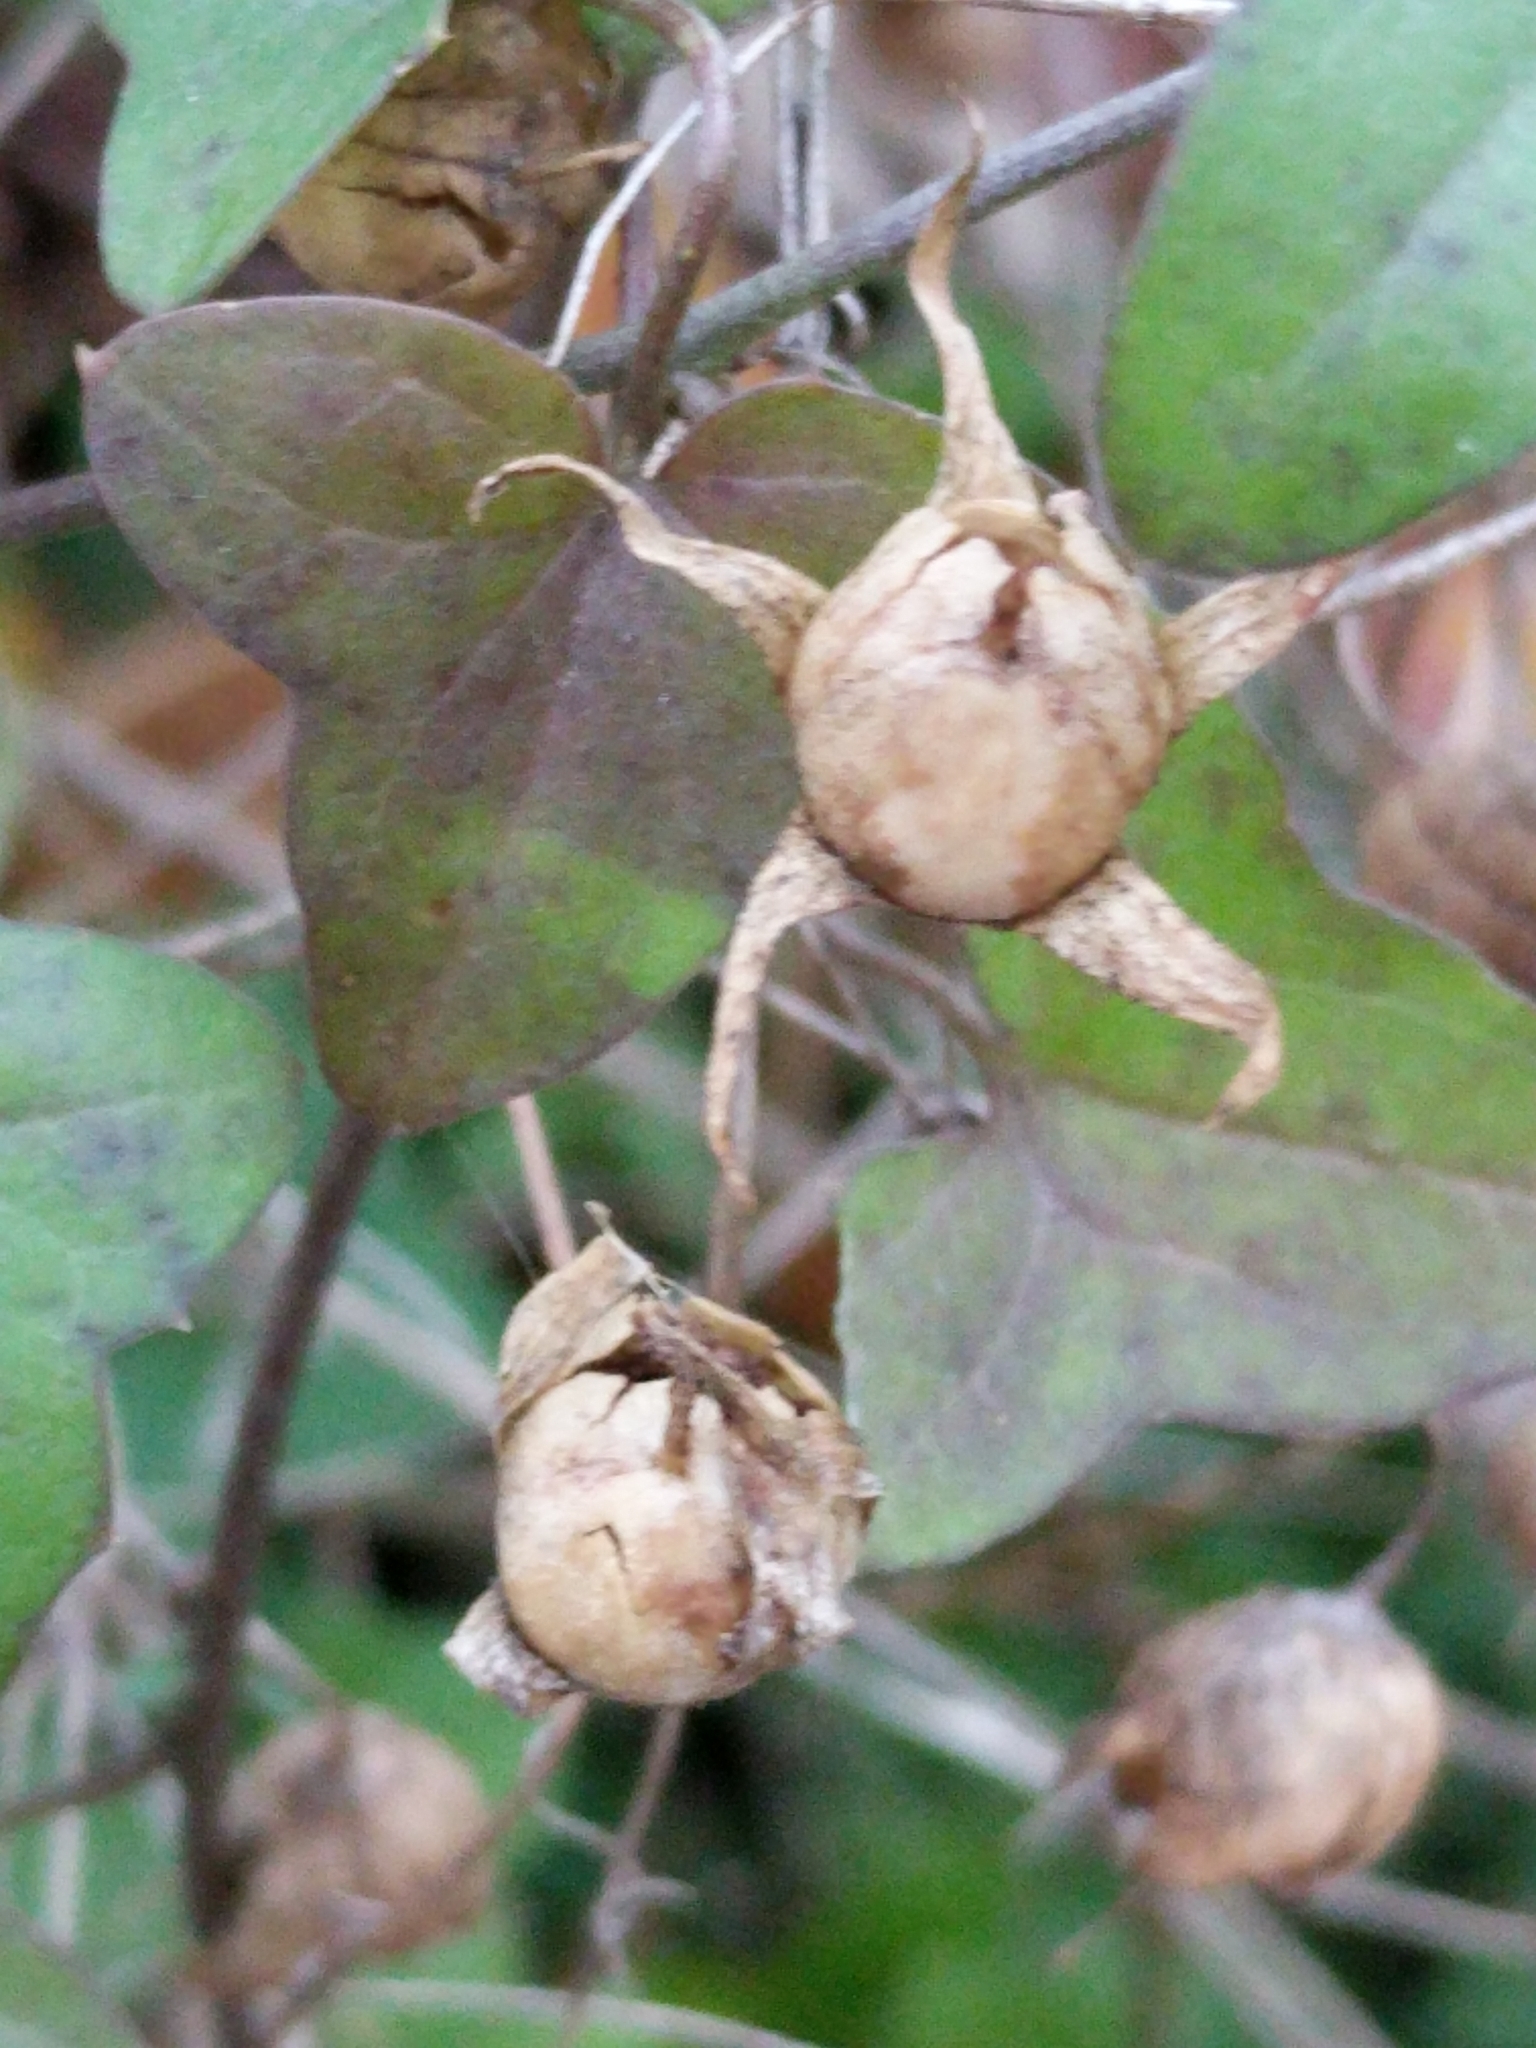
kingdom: Plantae
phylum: Tracheophyta
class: Magnoliopsida
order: Lamiales
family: Plantaginaceae
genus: Maurandella
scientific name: Maurandella antirrhiniflora
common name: Violet twining-snapdragon
